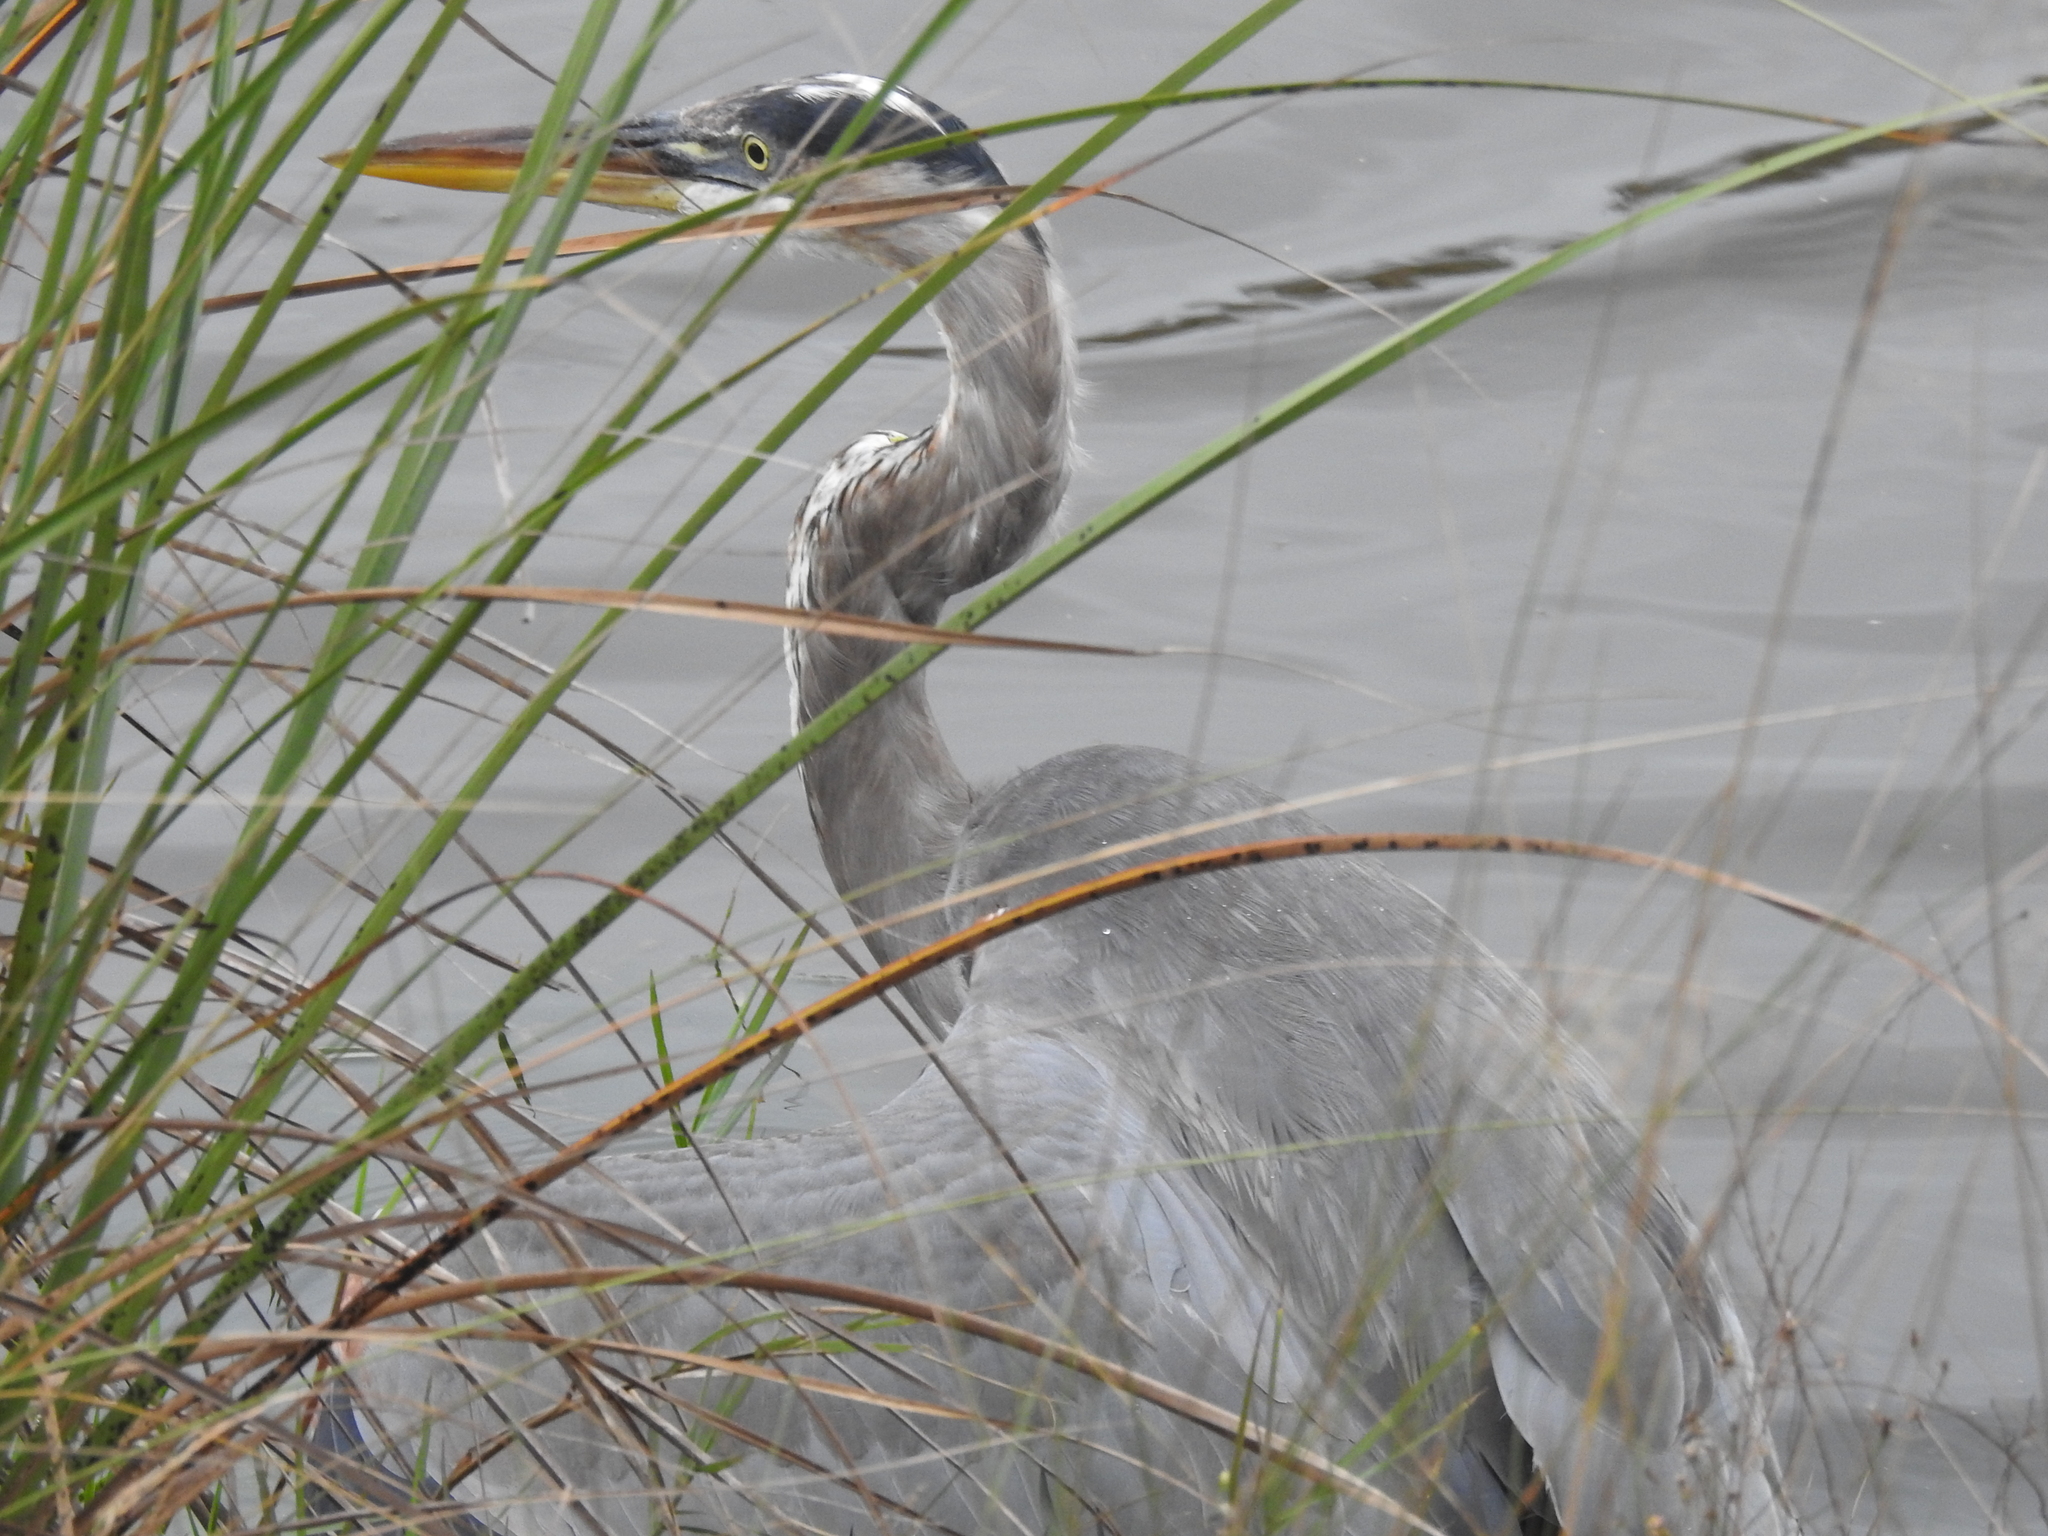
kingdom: Animalia
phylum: Chordata
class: Aves
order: Pelecaniformes
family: Ardeidae
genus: Ardea
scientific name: Ardea herodias
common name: Great blue heron
